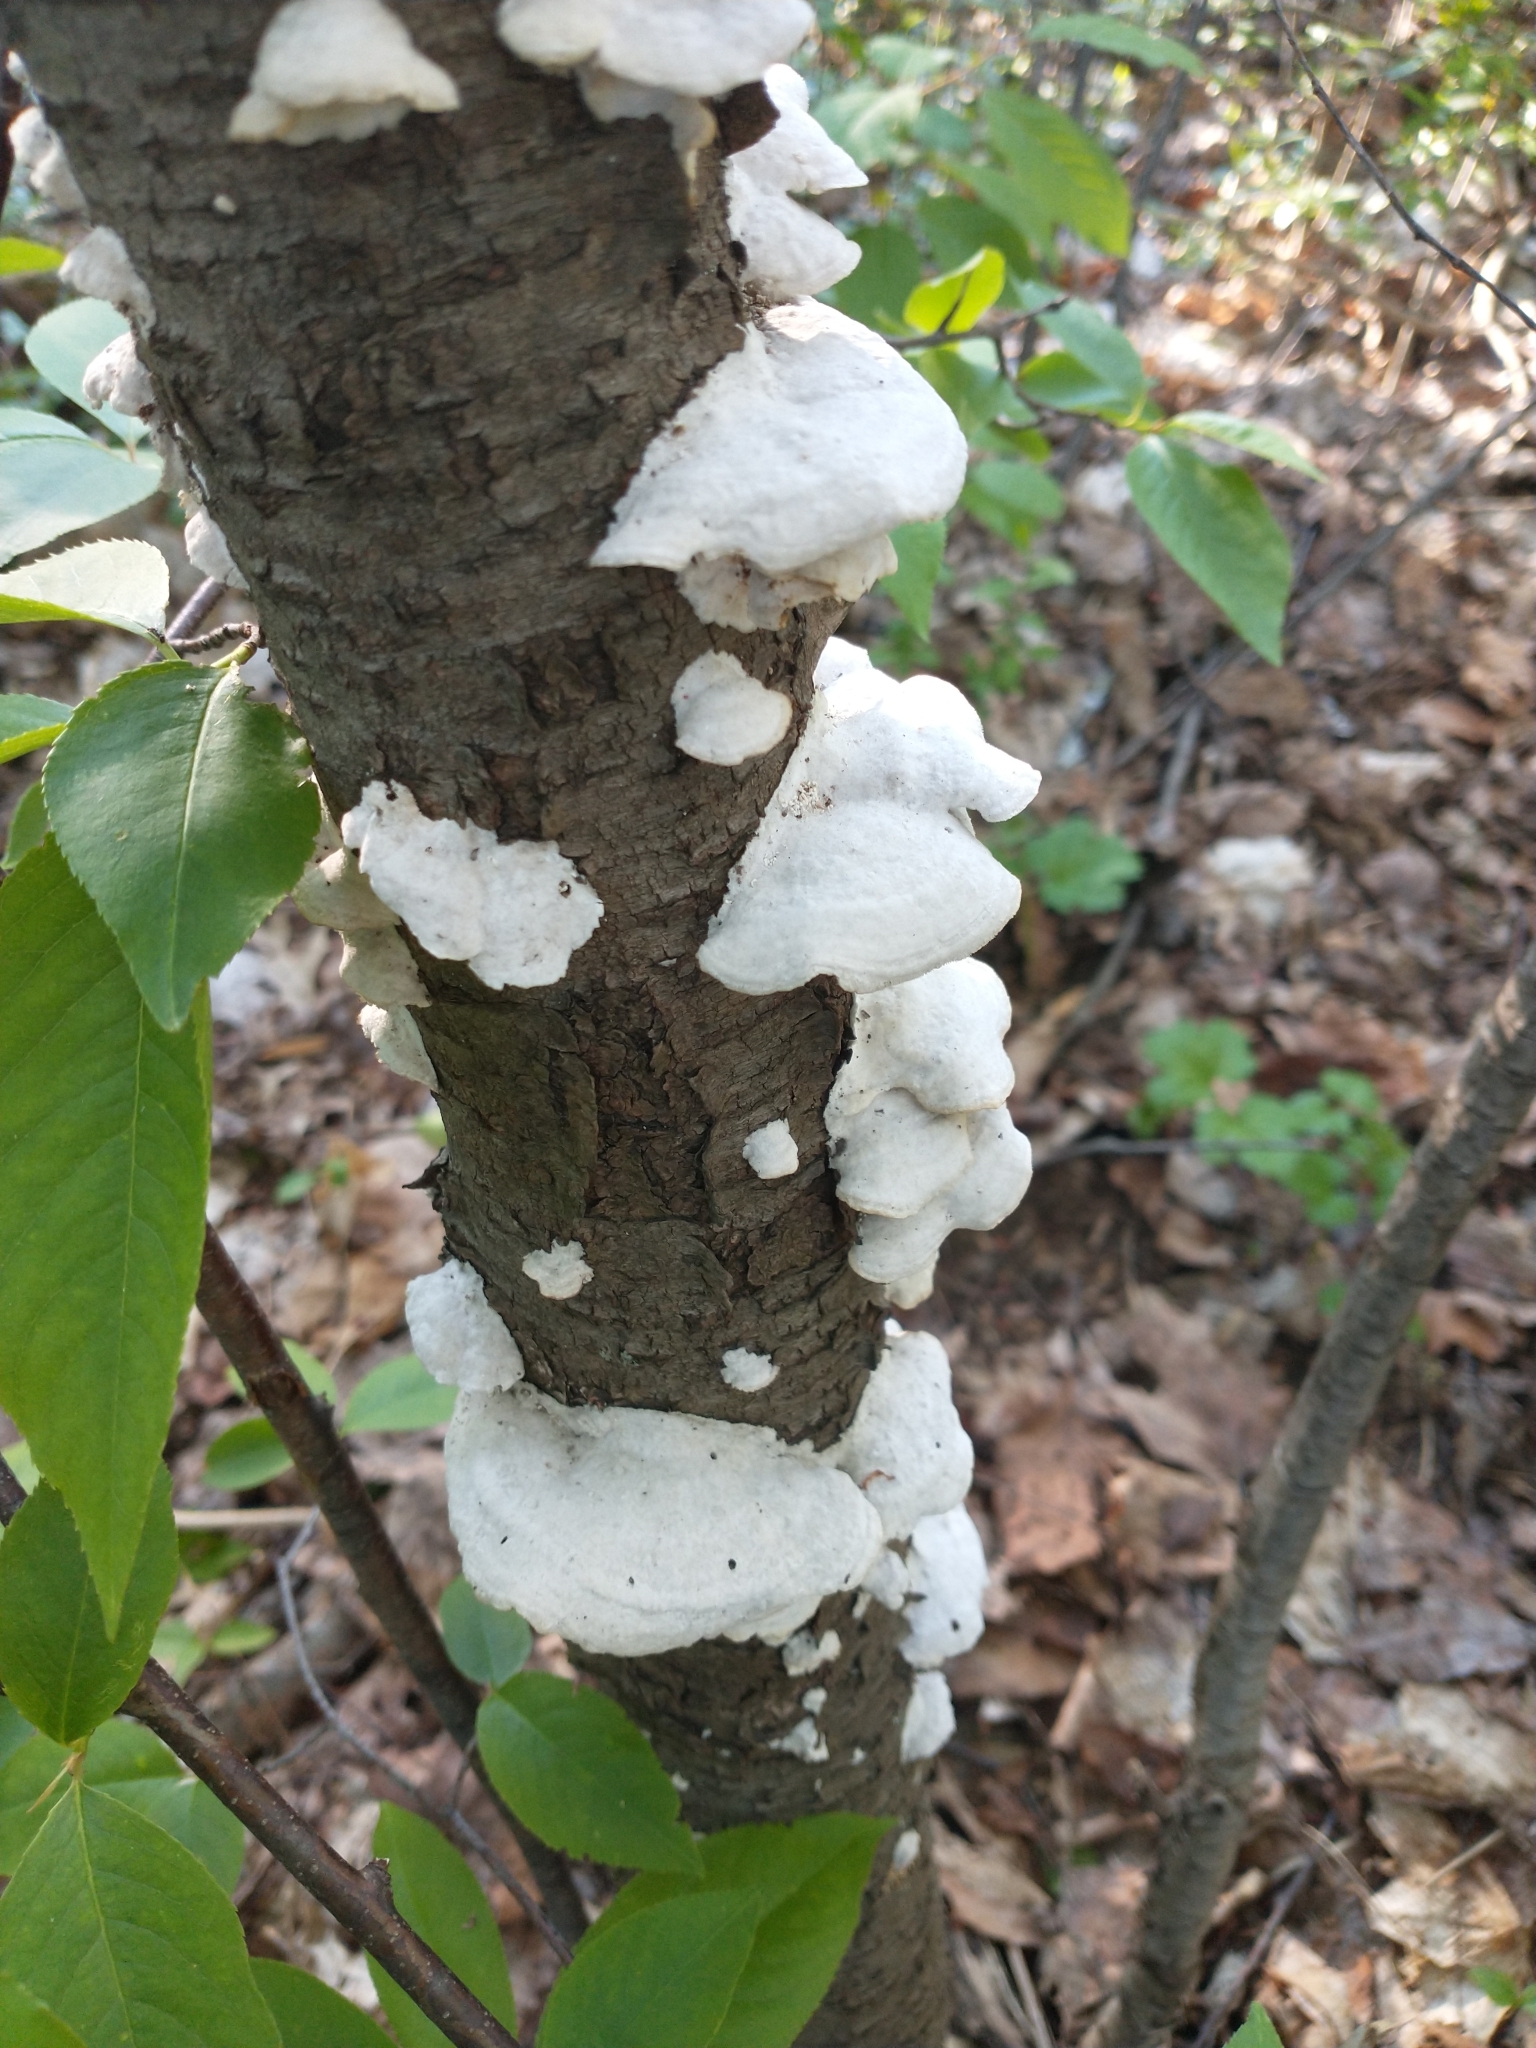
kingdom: Fungi
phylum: Basidiomycota
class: Agaricomycetes
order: Polyporales
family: Polyporaceae
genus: Trametes
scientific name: Trametes pubescens
